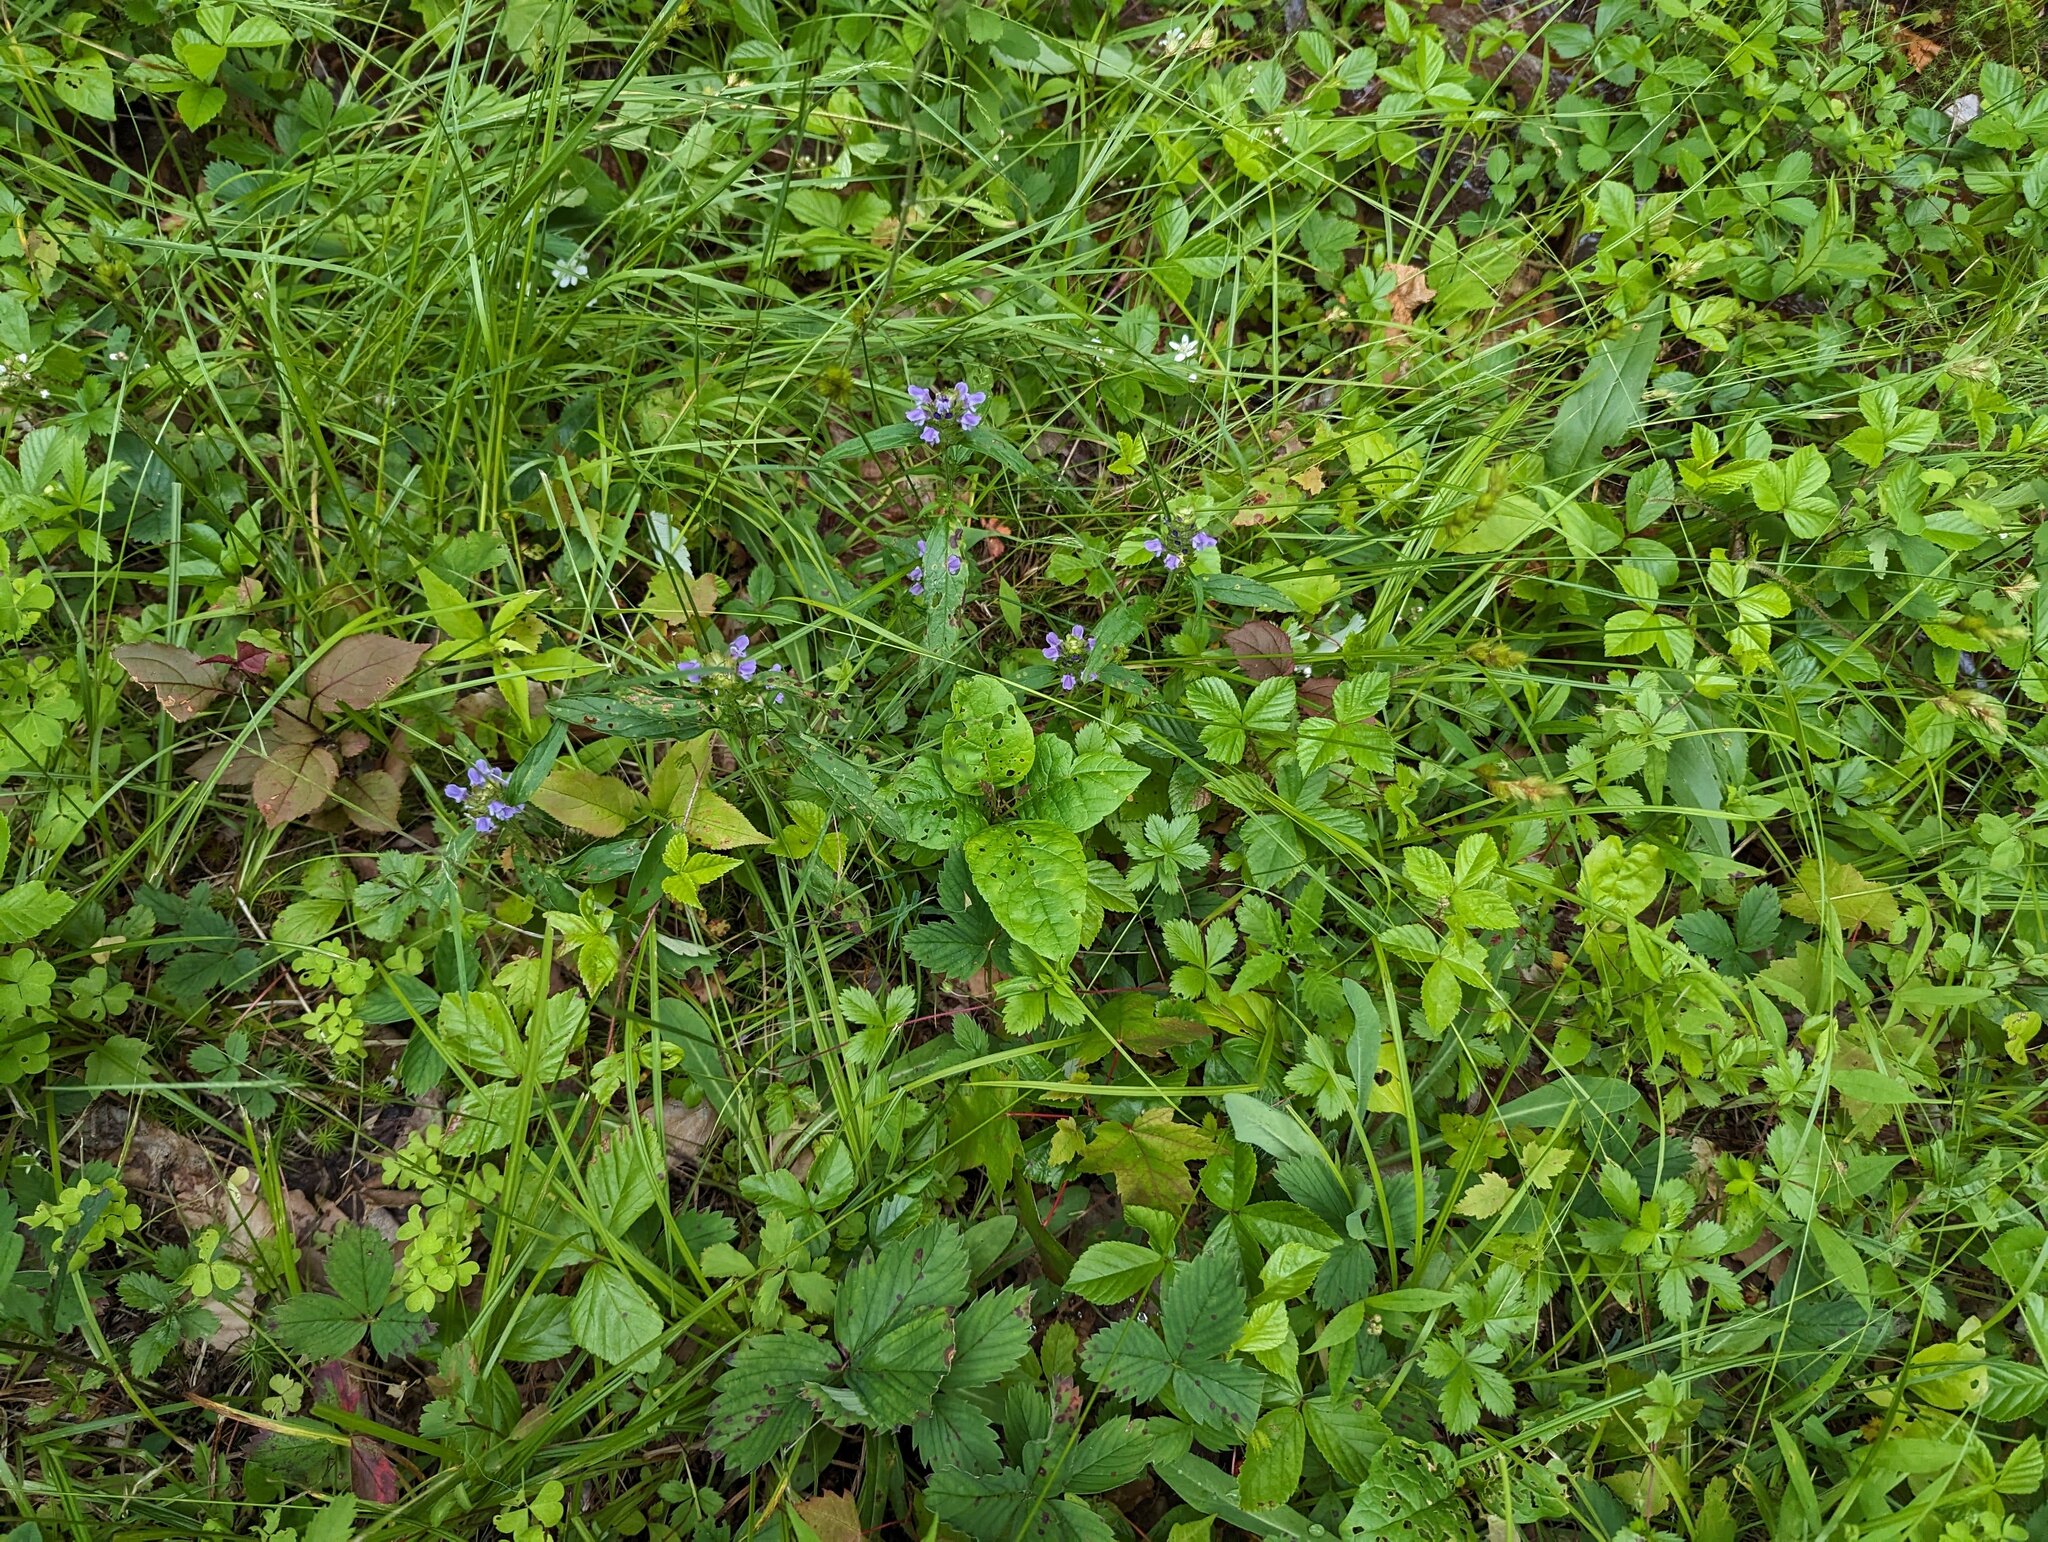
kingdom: Plantae
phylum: Tracheophyta
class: Magnoliopsida
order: Lamiales
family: Lamiaceae
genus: Prunella
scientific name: Prunella vulgaris
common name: Heal-all
